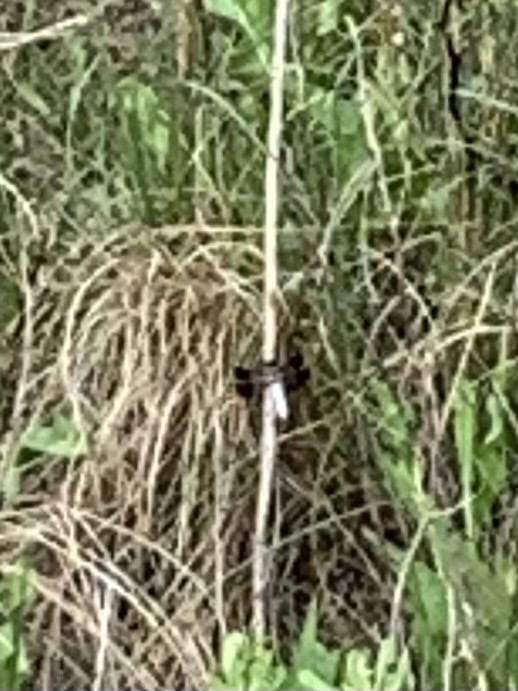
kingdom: Animalia
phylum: Arthropoda
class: Insecta
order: Odonata
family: Libellulidae
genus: Plathemis
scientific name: Plathemis lydia
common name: Common whitetail
